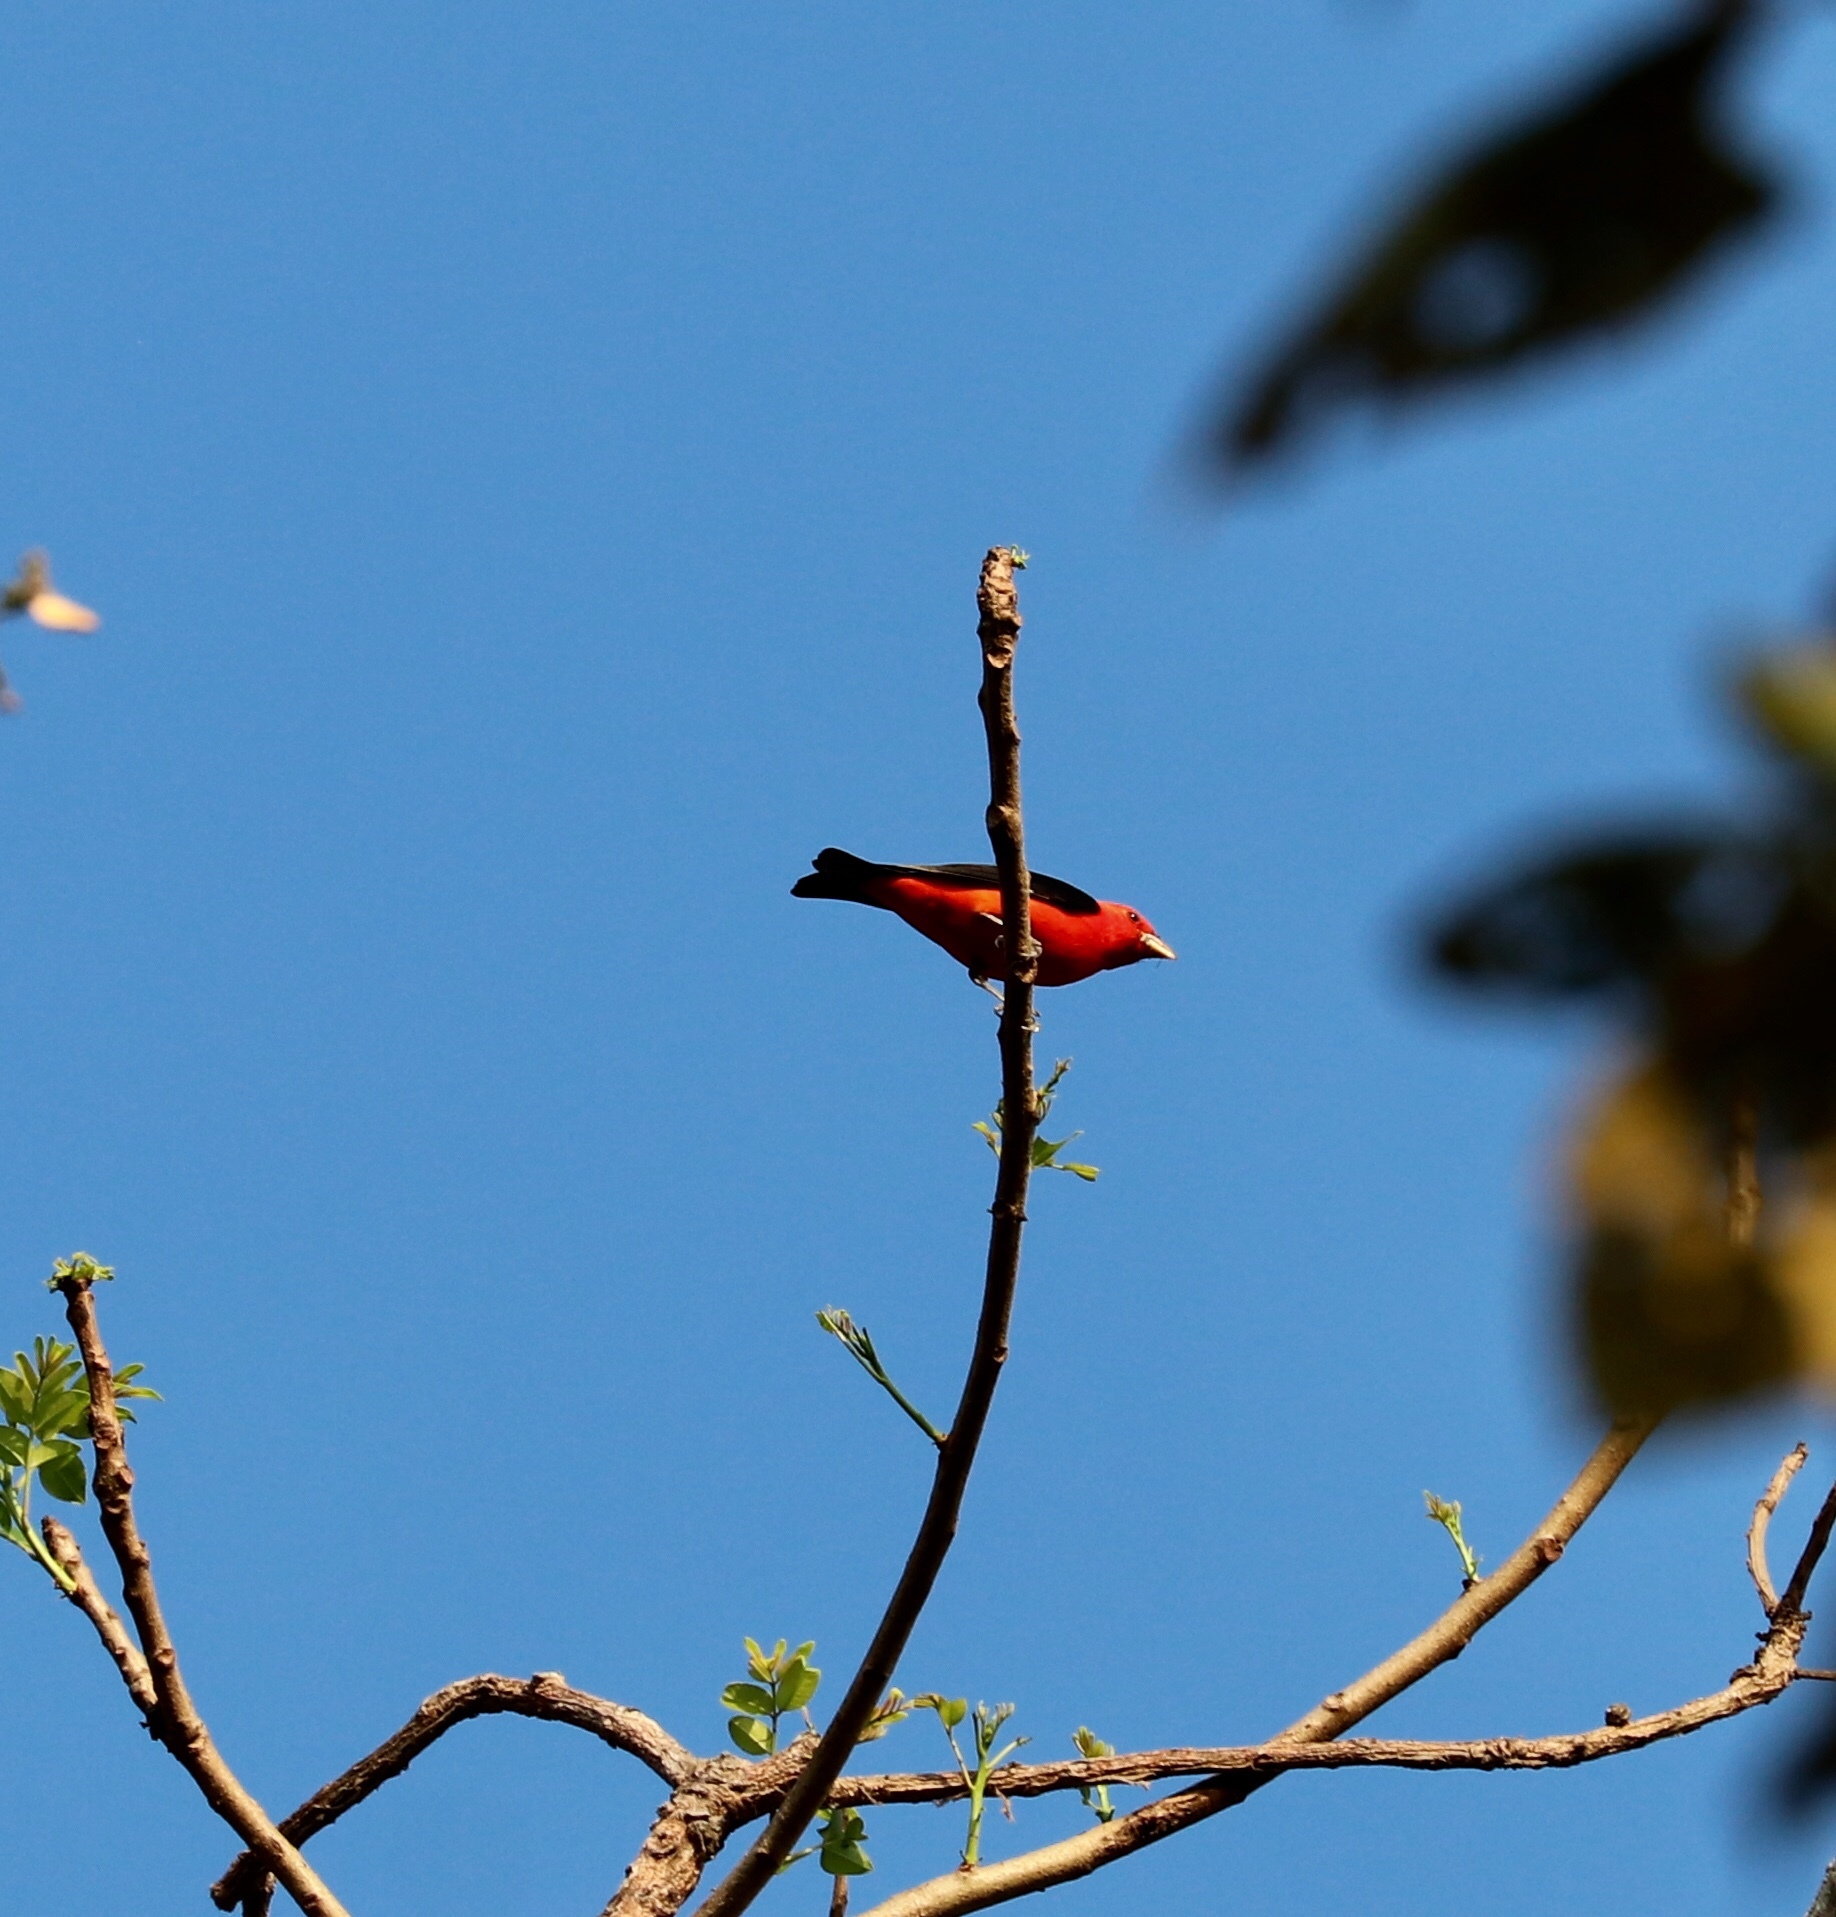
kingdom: Animalia
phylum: Chordata
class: Aves
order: Passeriformes
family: Cardinalidae
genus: Piranga
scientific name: Piranga olivacea
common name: Scarlet tanager
